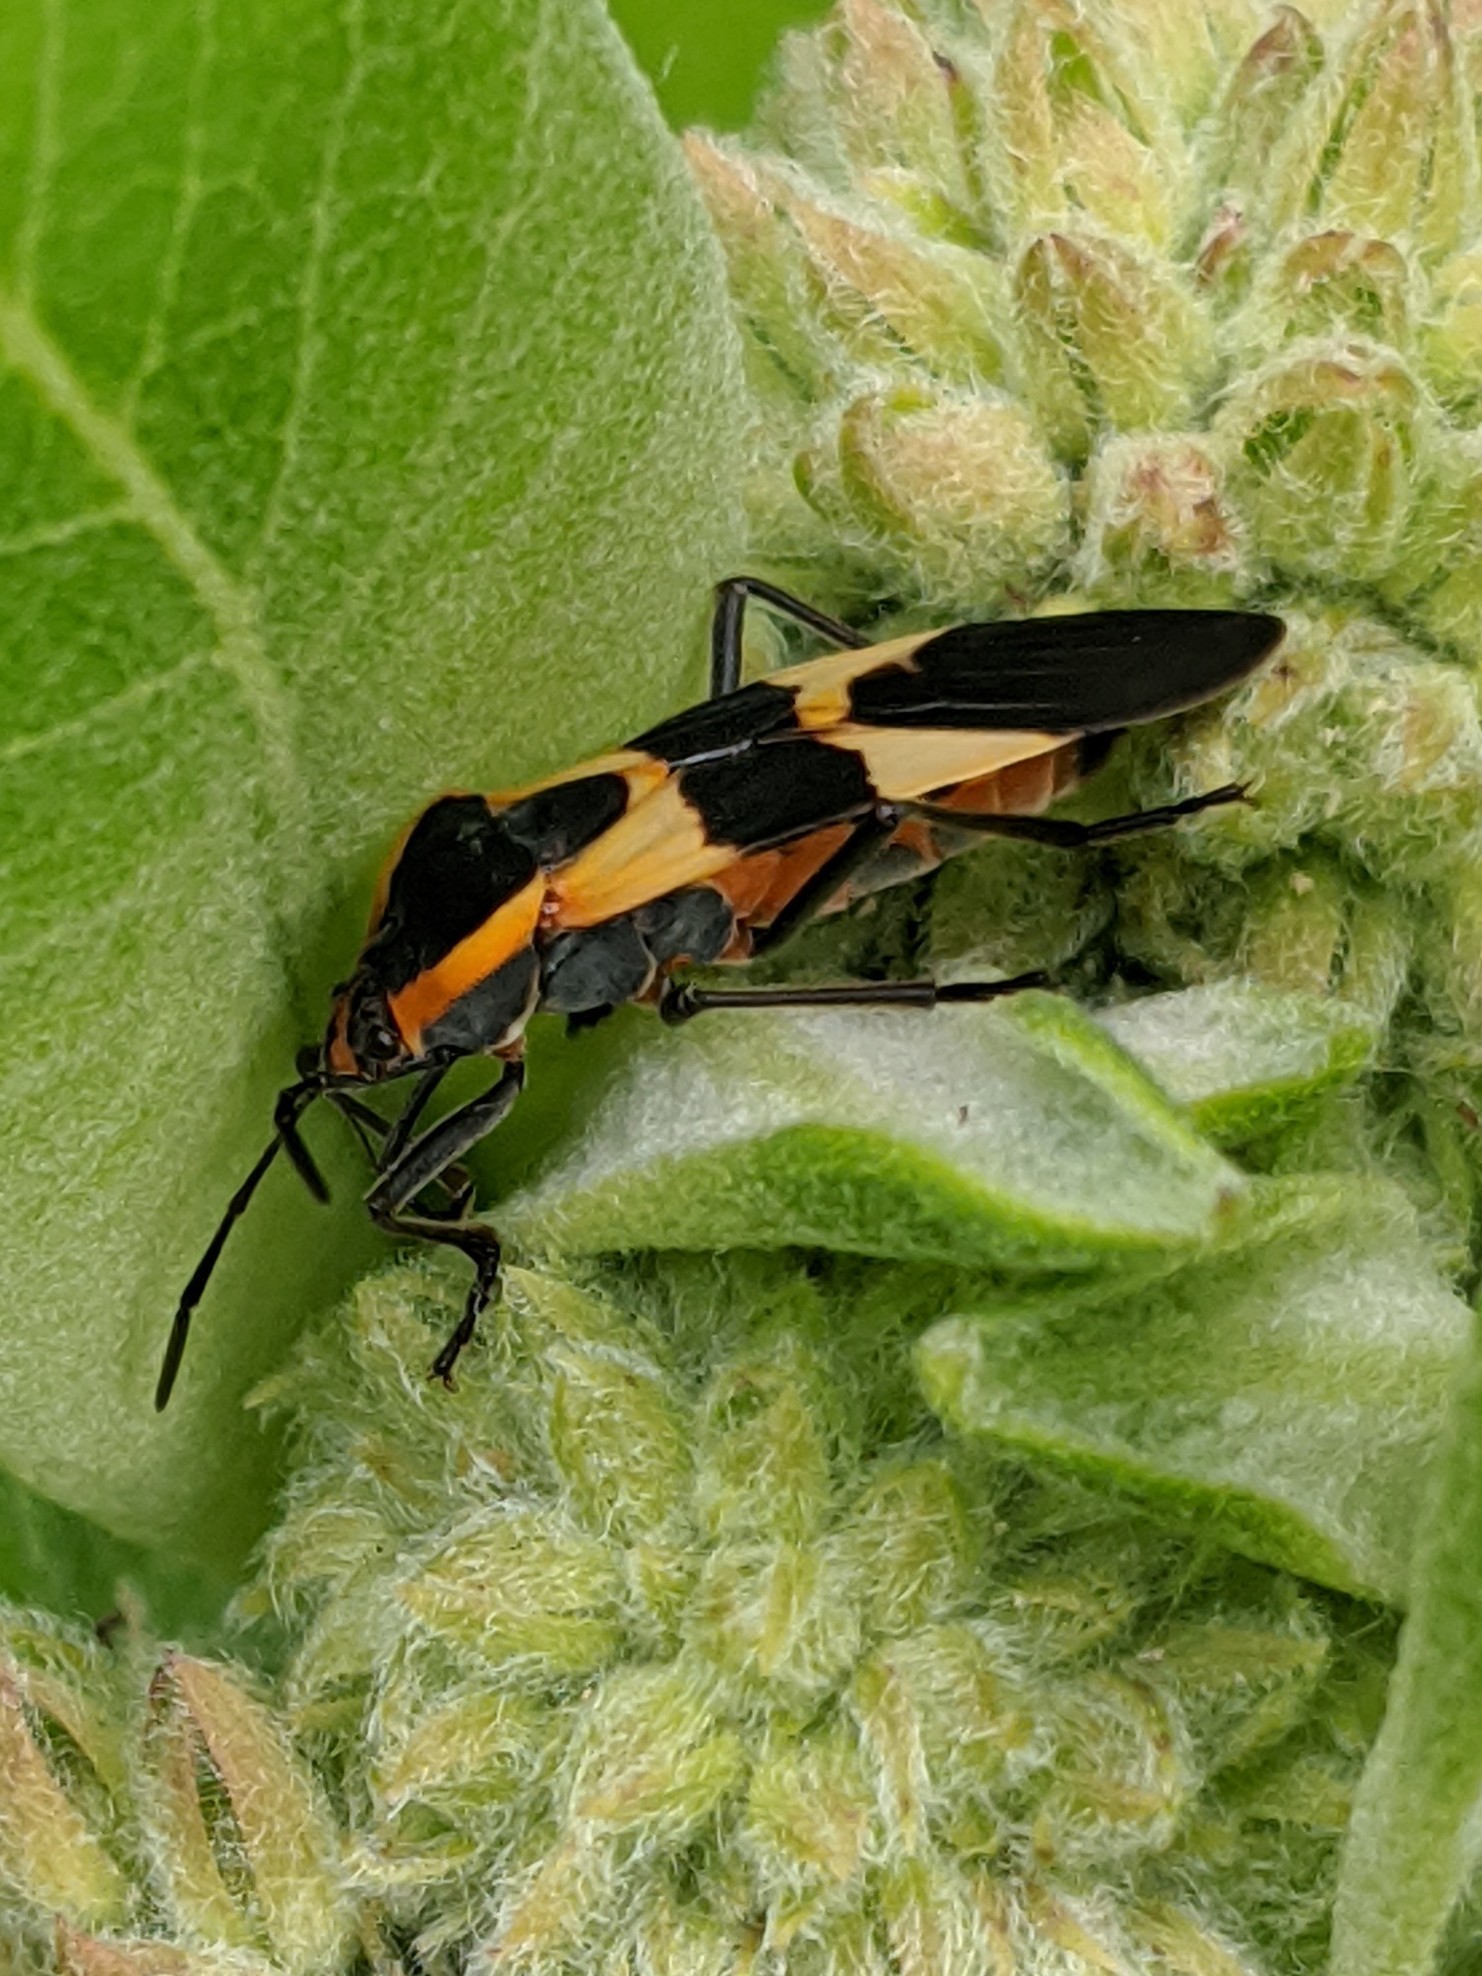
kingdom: Animalia
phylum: Arthropoda
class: Insecta
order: Hemiptera
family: Lygaeidae
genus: Oncopeltus
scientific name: Oncopeltus fasciatus
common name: Large milkweed bug
